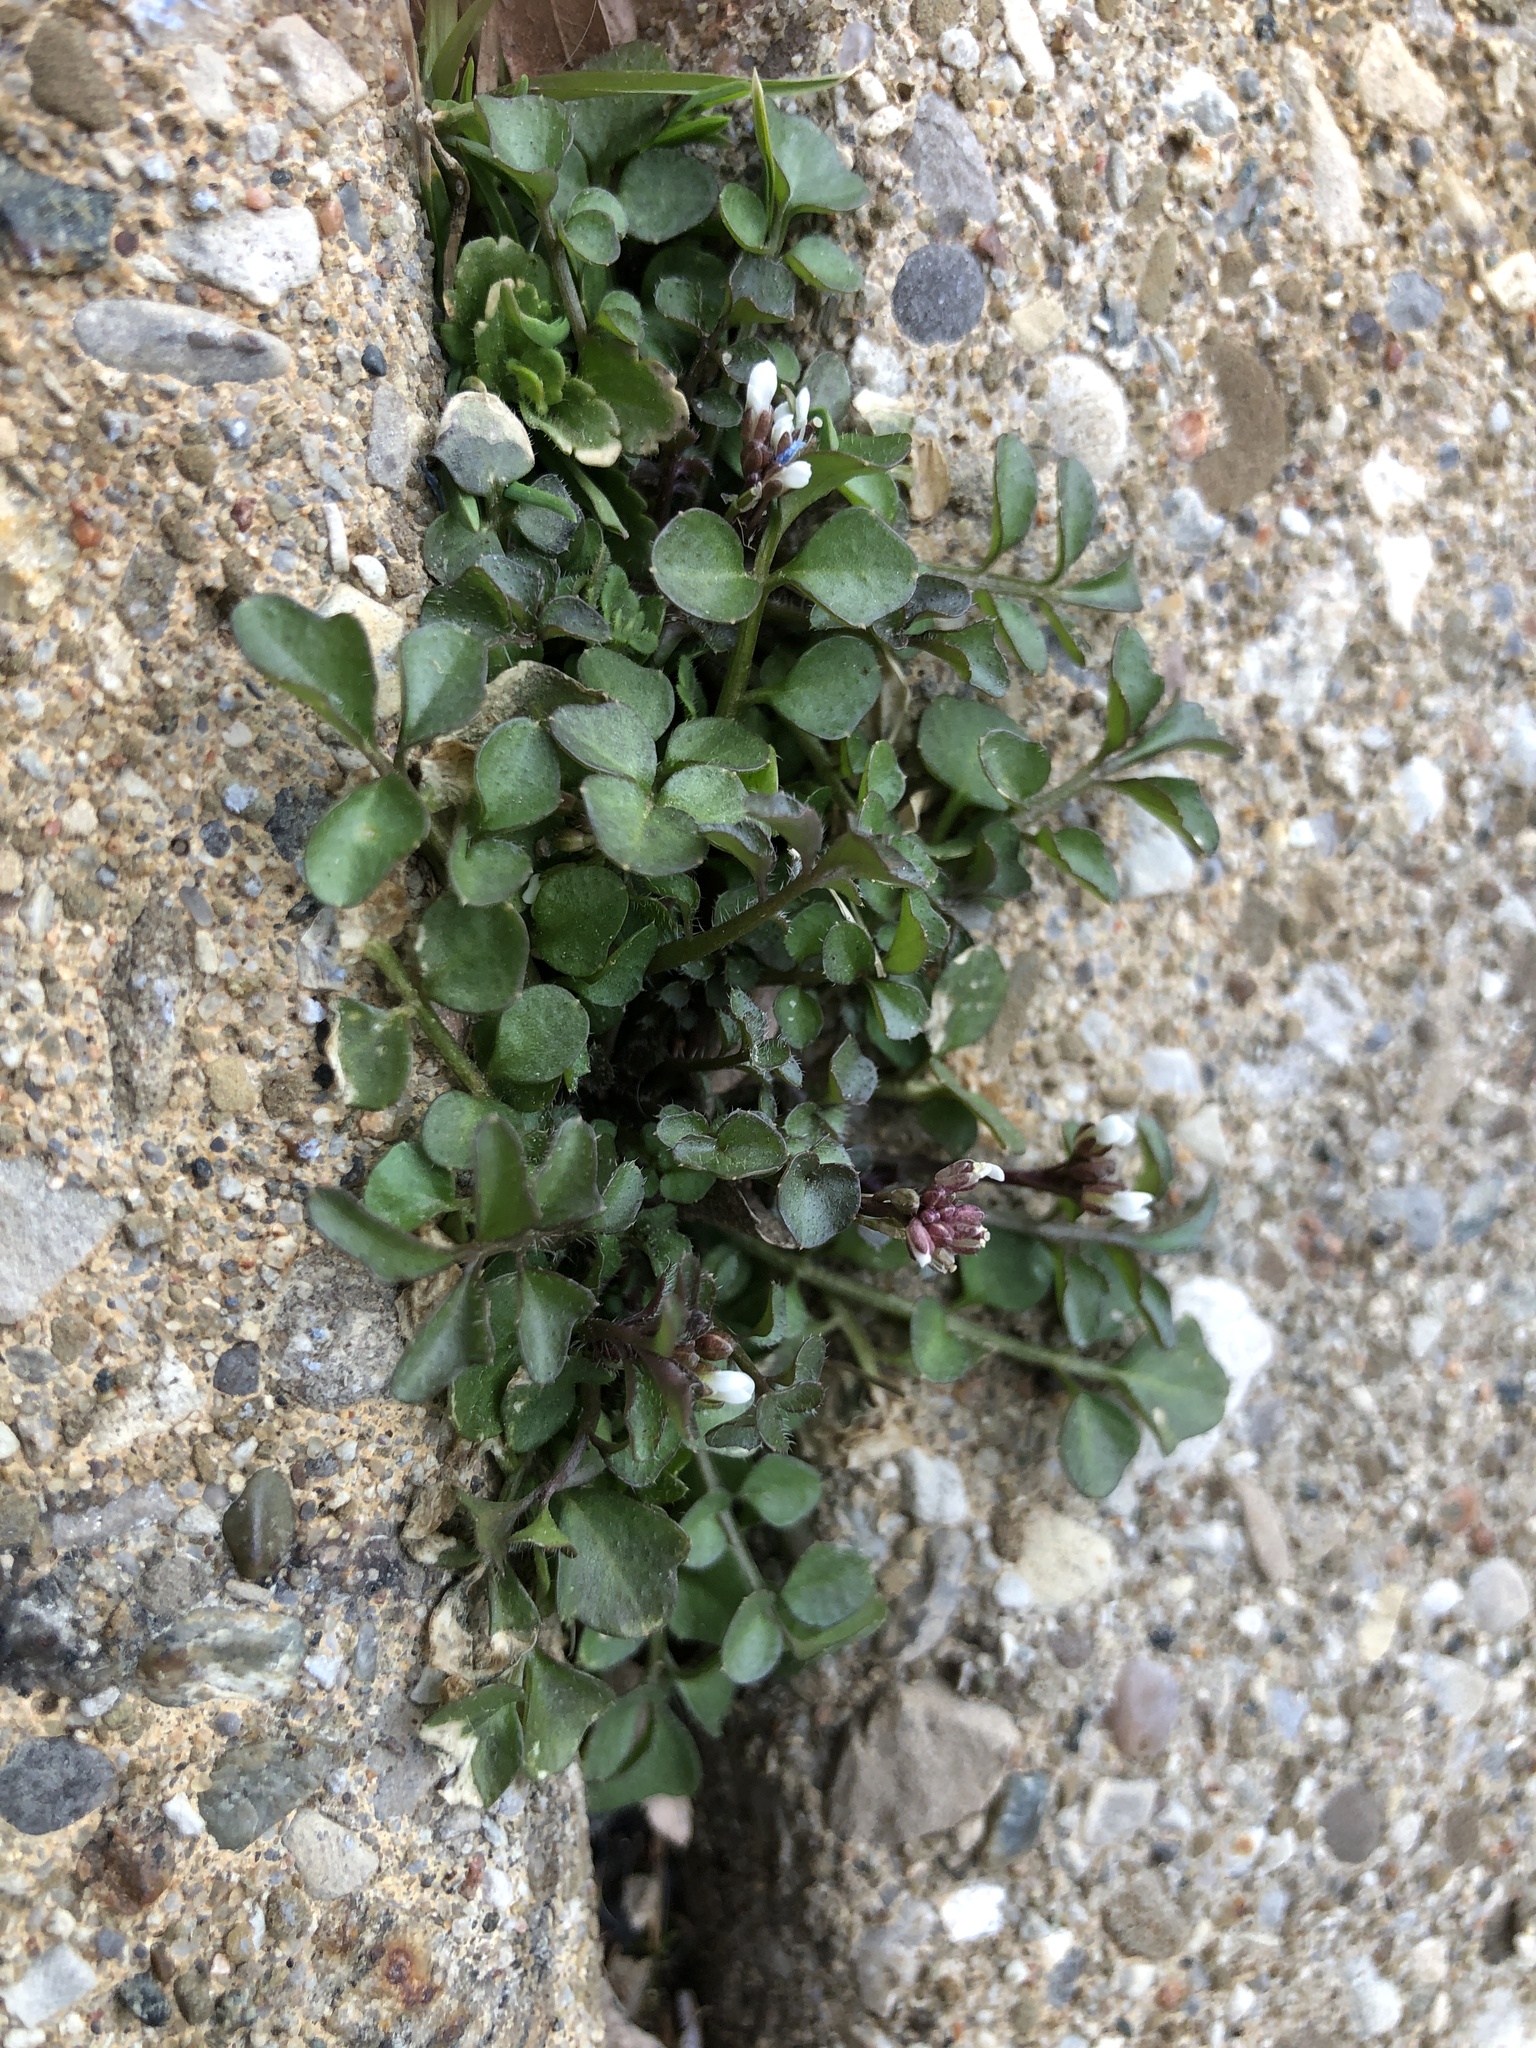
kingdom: Plantae
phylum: Tracheophyta
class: Magnoliopsida
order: Brassicales
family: Brassicaceae
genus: Cardamine
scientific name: Cardamine hirsuta
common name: Hairy bittercress
